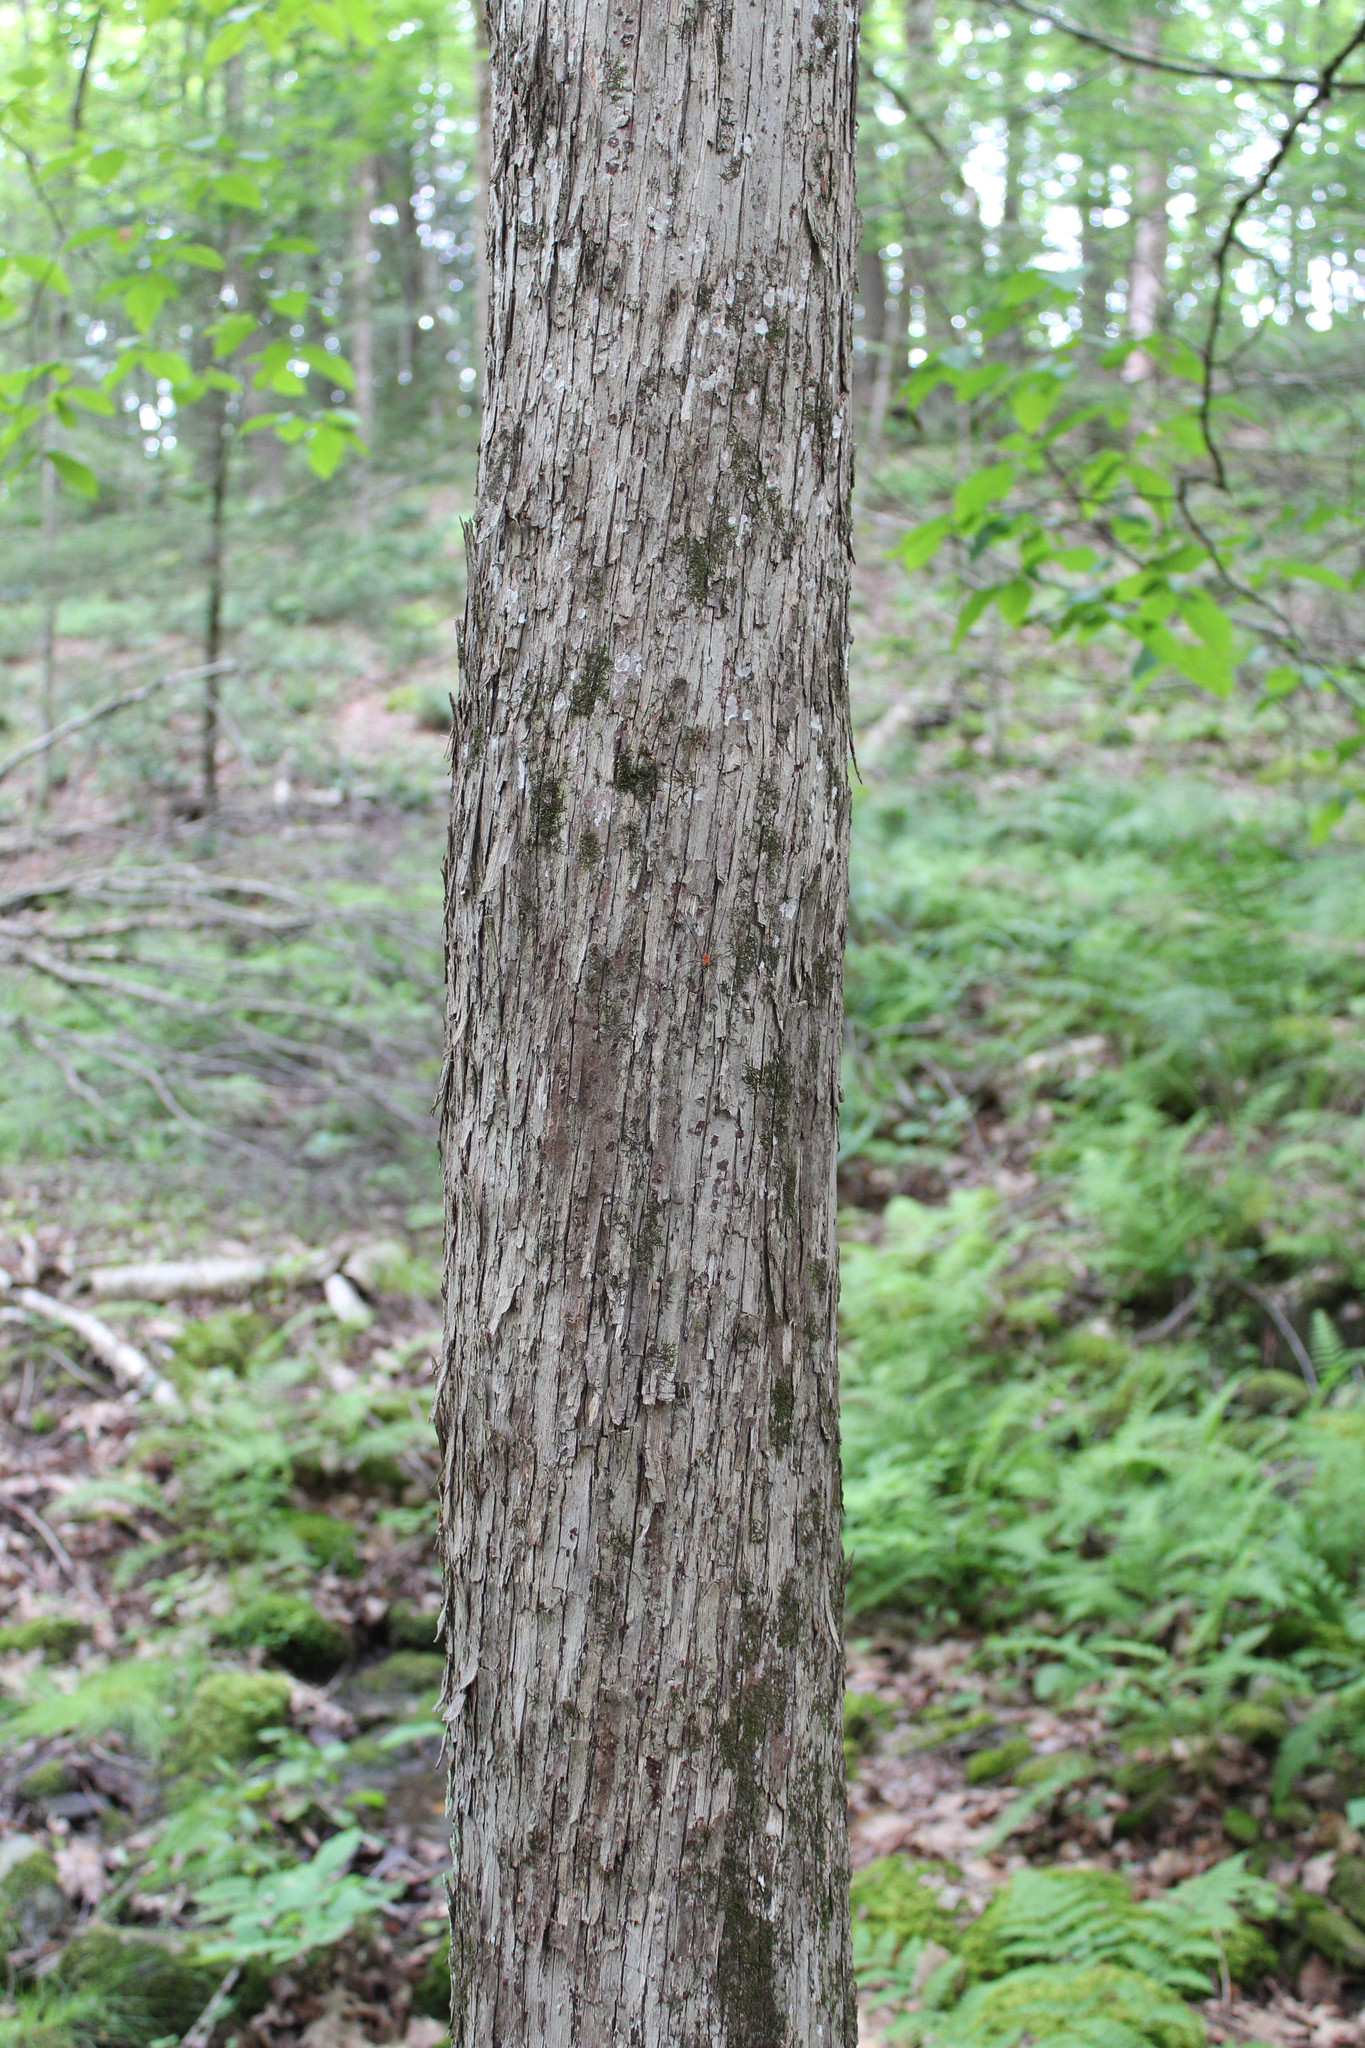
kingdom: Plantae
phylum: Tracheophyta
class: Magnoliopsida
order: Fagales
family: Betulaceae
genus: Ostrya
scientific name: Ostrya virginiana
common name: Ironwood
